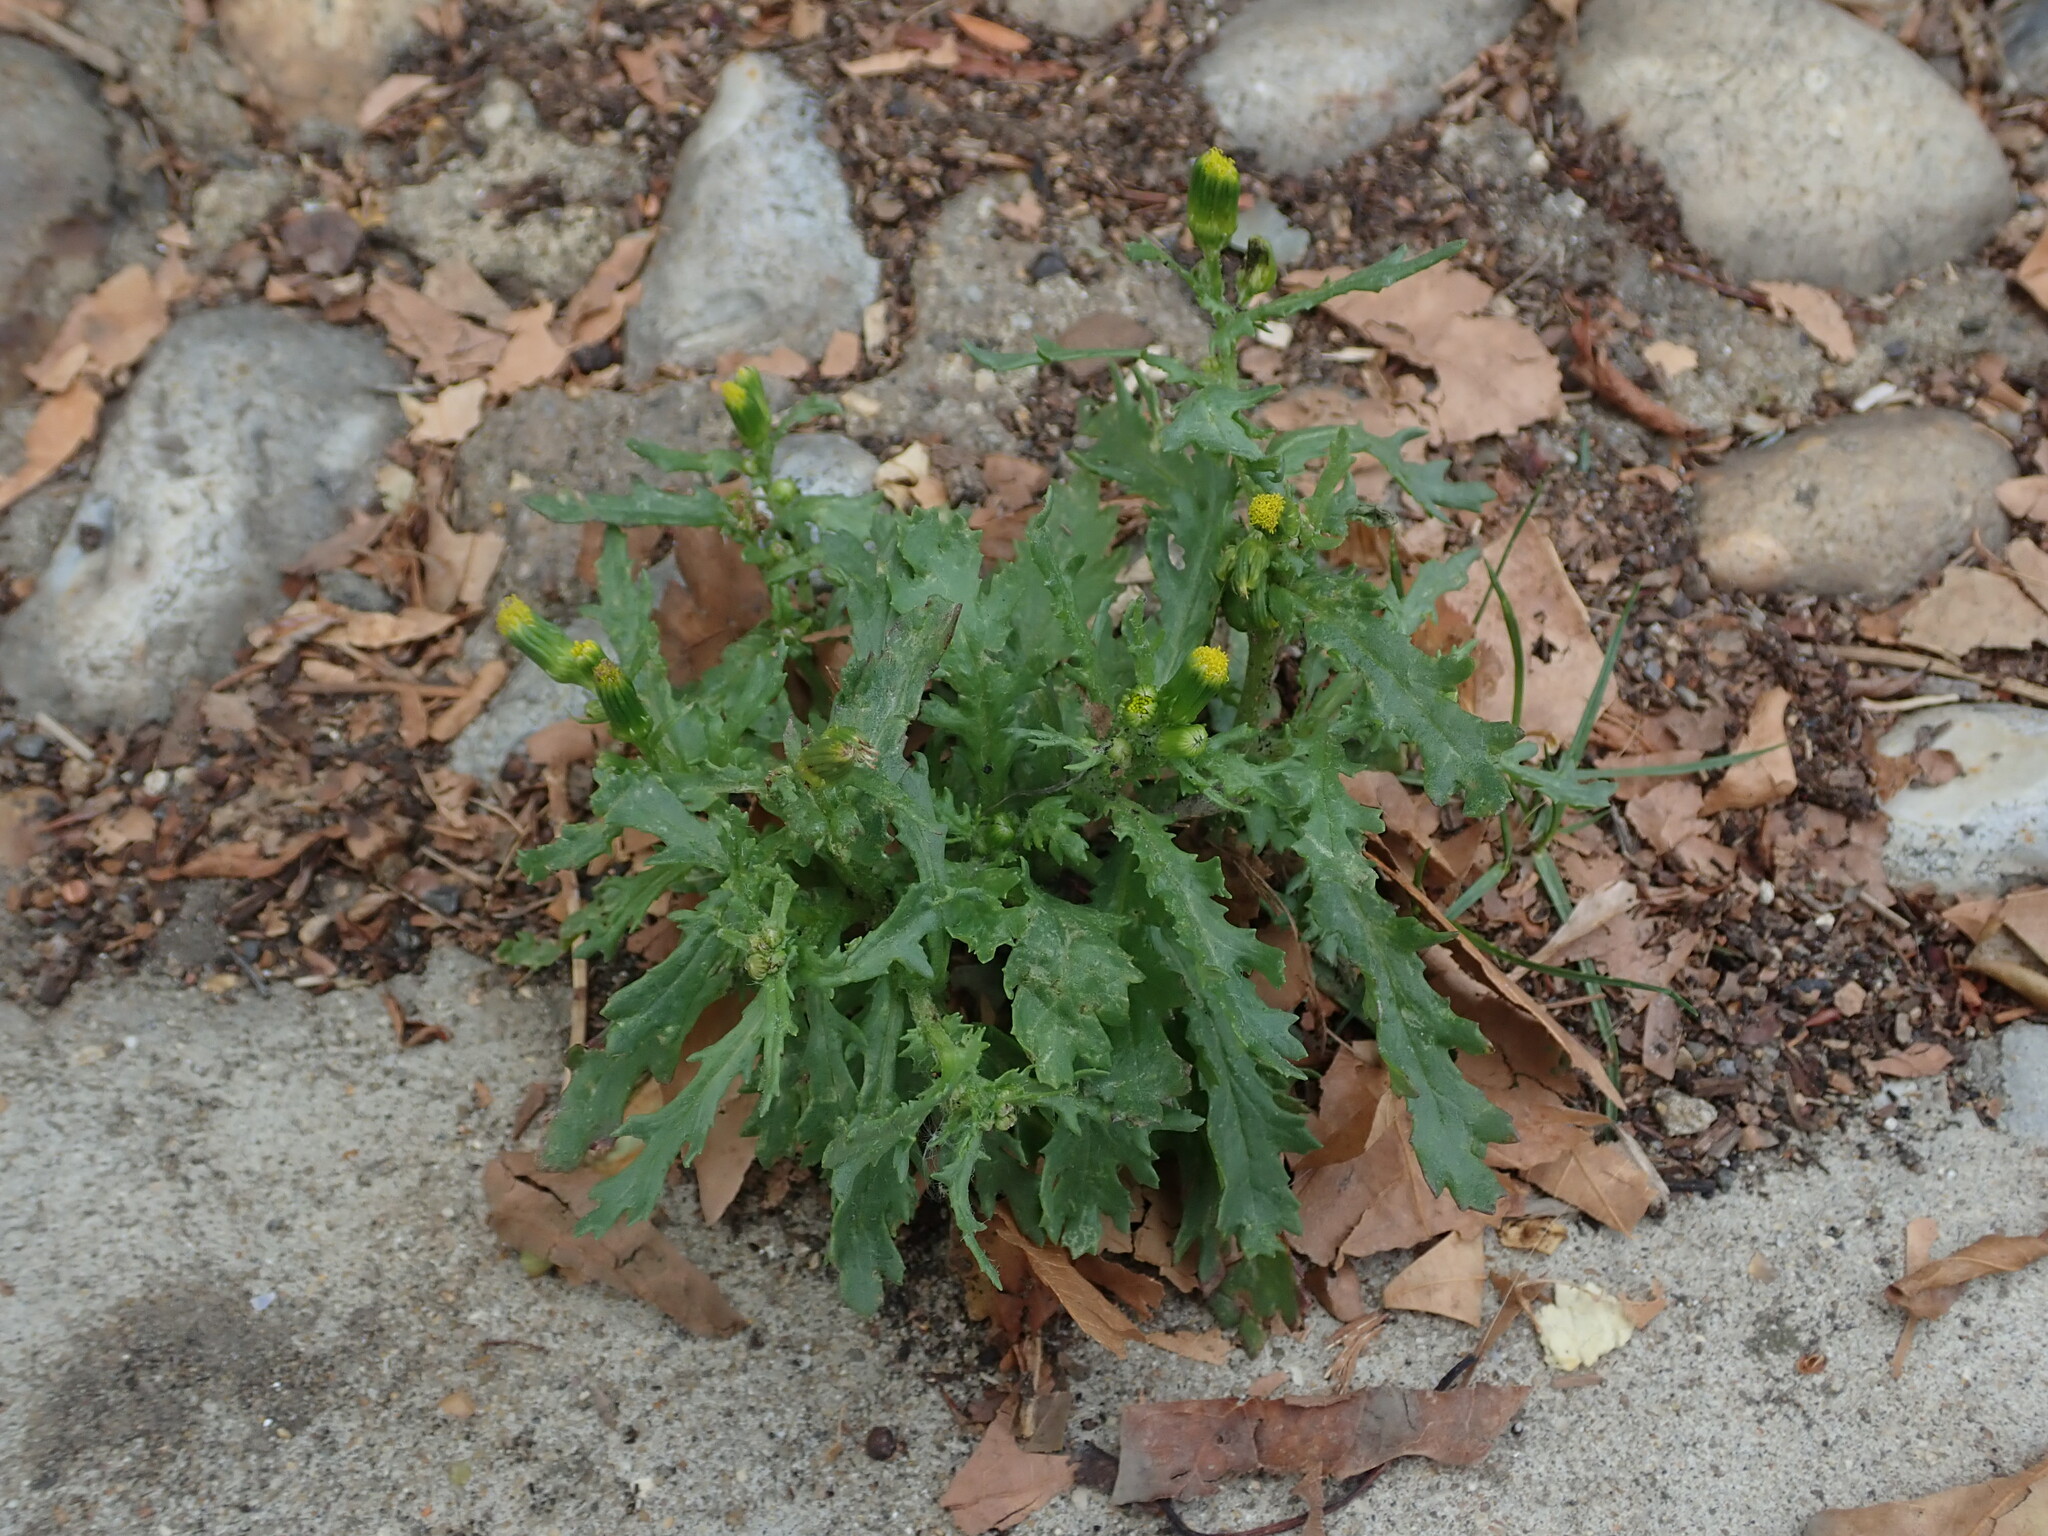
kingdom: Plantae
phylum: Tracheophyta
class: Magnoliopsida
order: Asterales
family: Asteraceae
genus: Senecio
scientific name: Senecio vulgaris
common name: Old-man-in-the-spring
